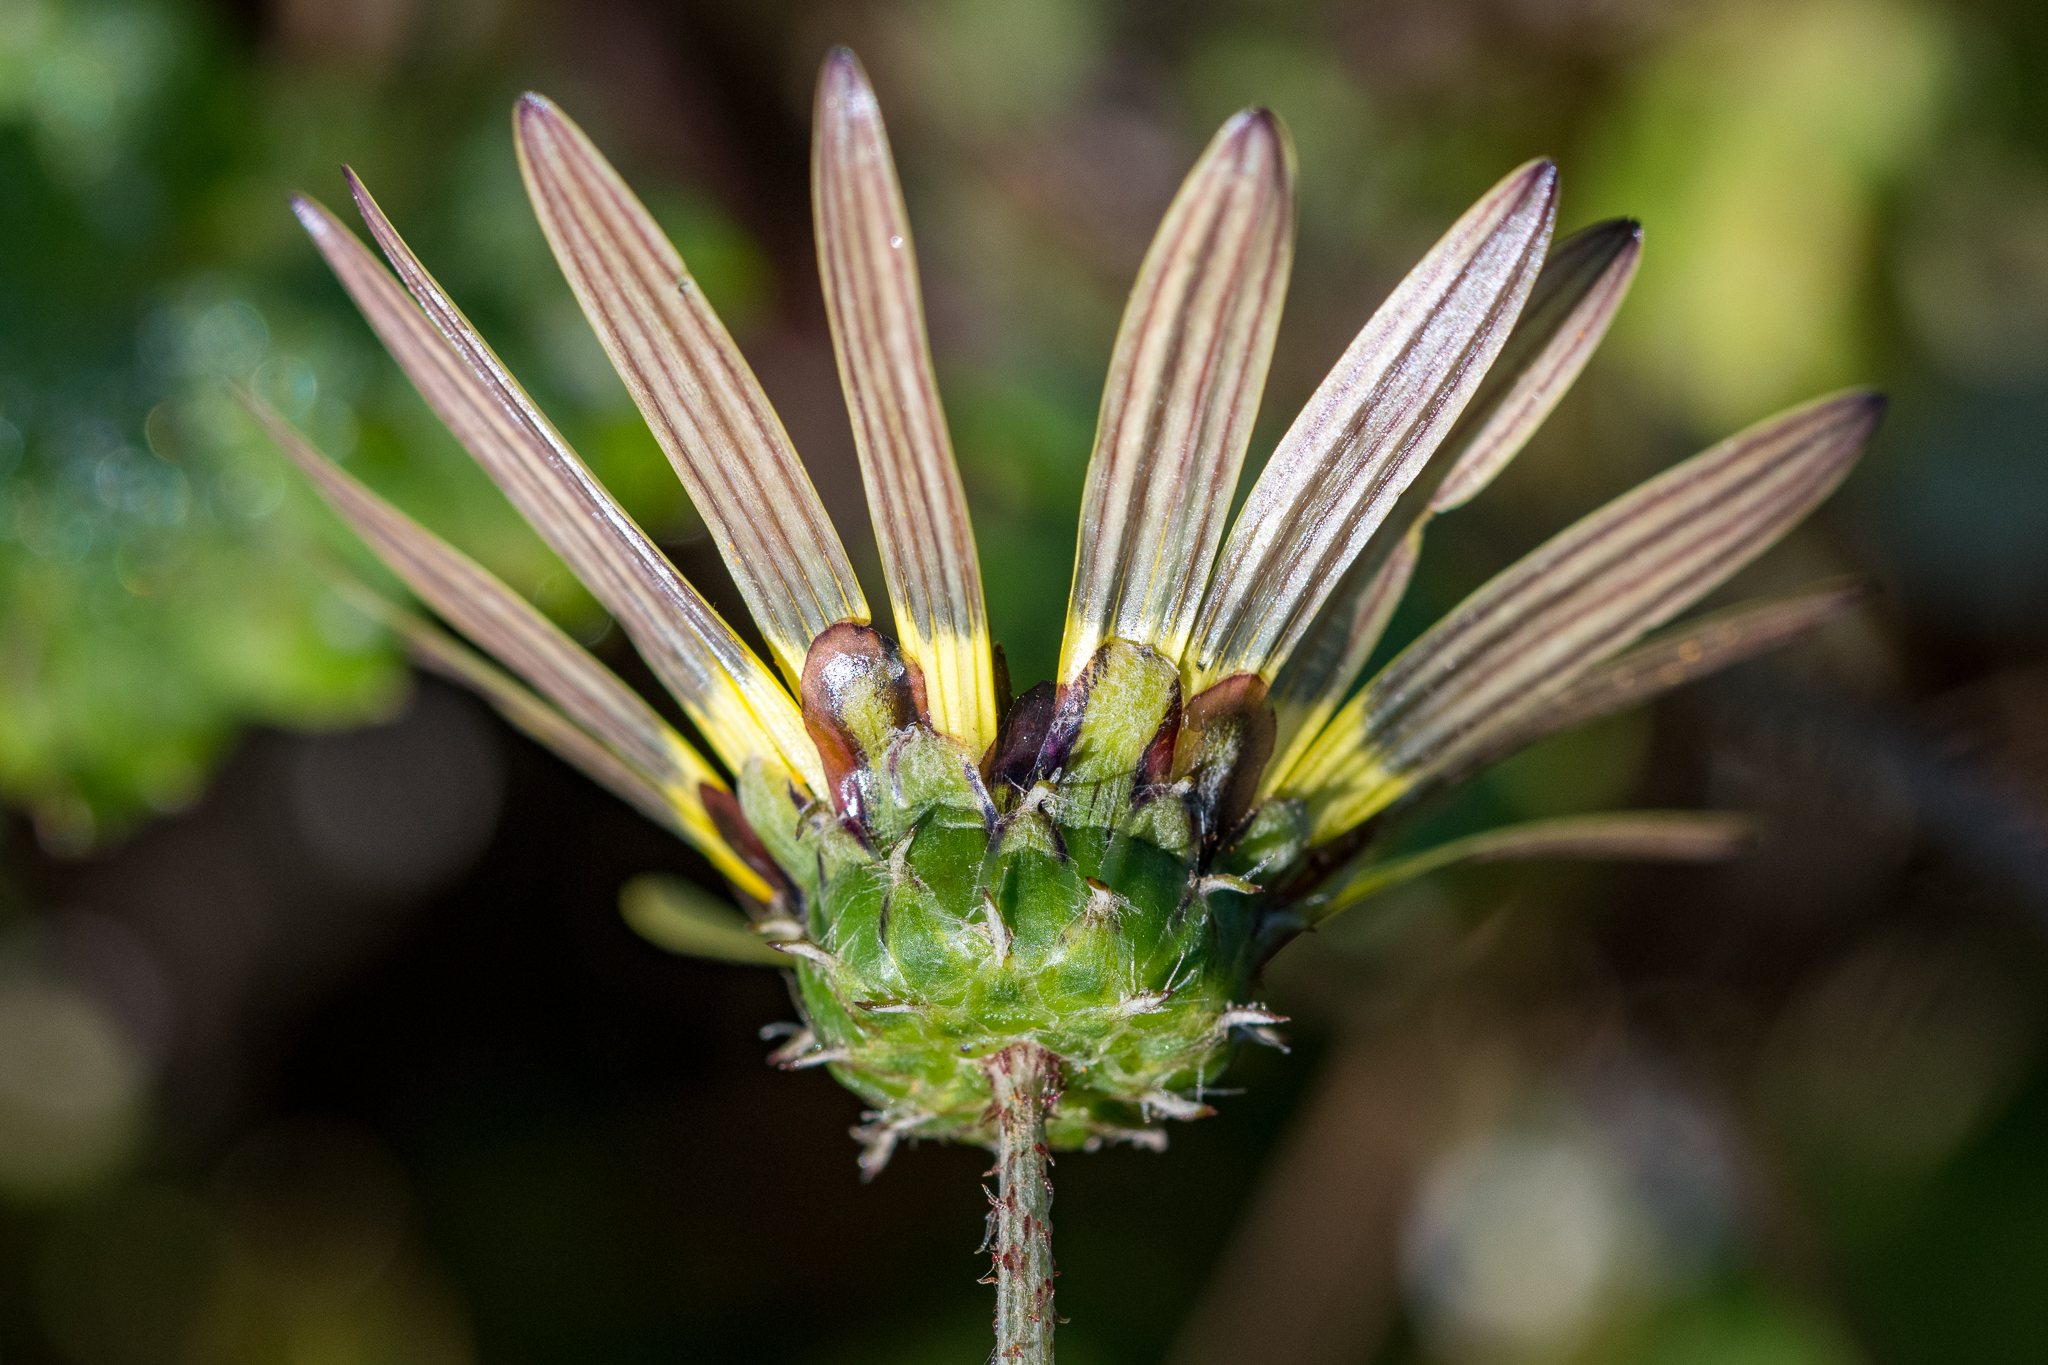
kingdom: Plantae
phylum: Tracheophyta
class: Magnoliopsida
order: Asterales
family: Asteraceae
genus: Arctotheca
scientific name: Arctotheca calendula
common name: Capeweed
